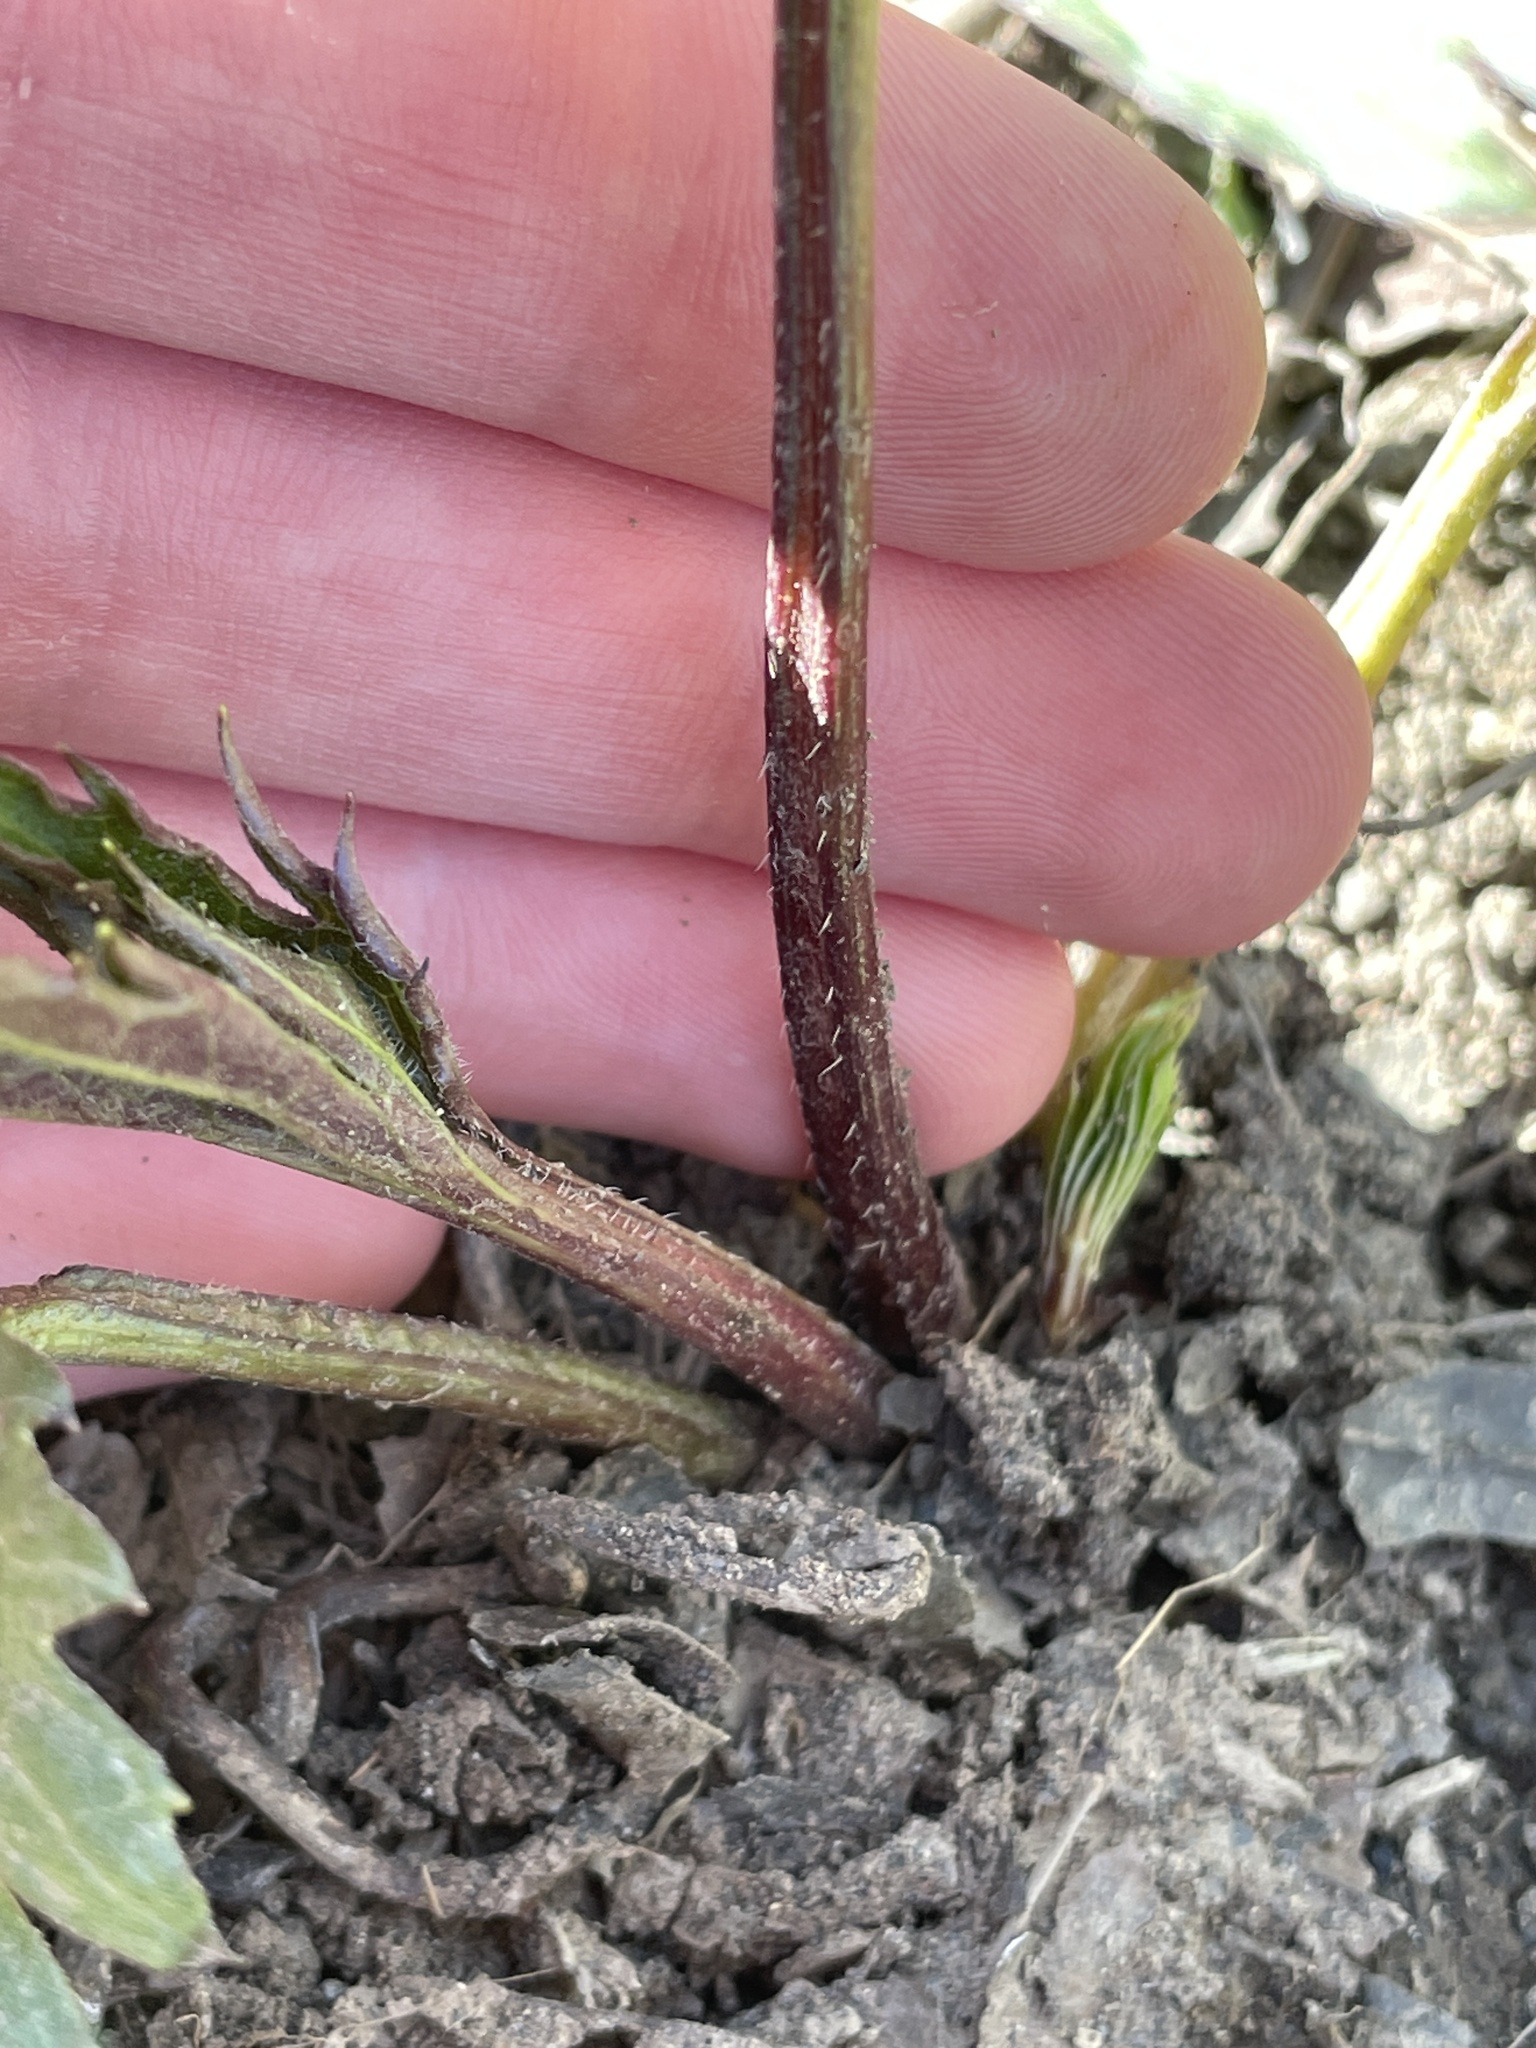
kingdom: Plantae
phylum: Tracheophyta
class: Magnoliopsida
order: Asterales
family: Asteraceae
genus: Rudbeckia
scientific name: Rudbeckia laciniata
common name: Coneflower
